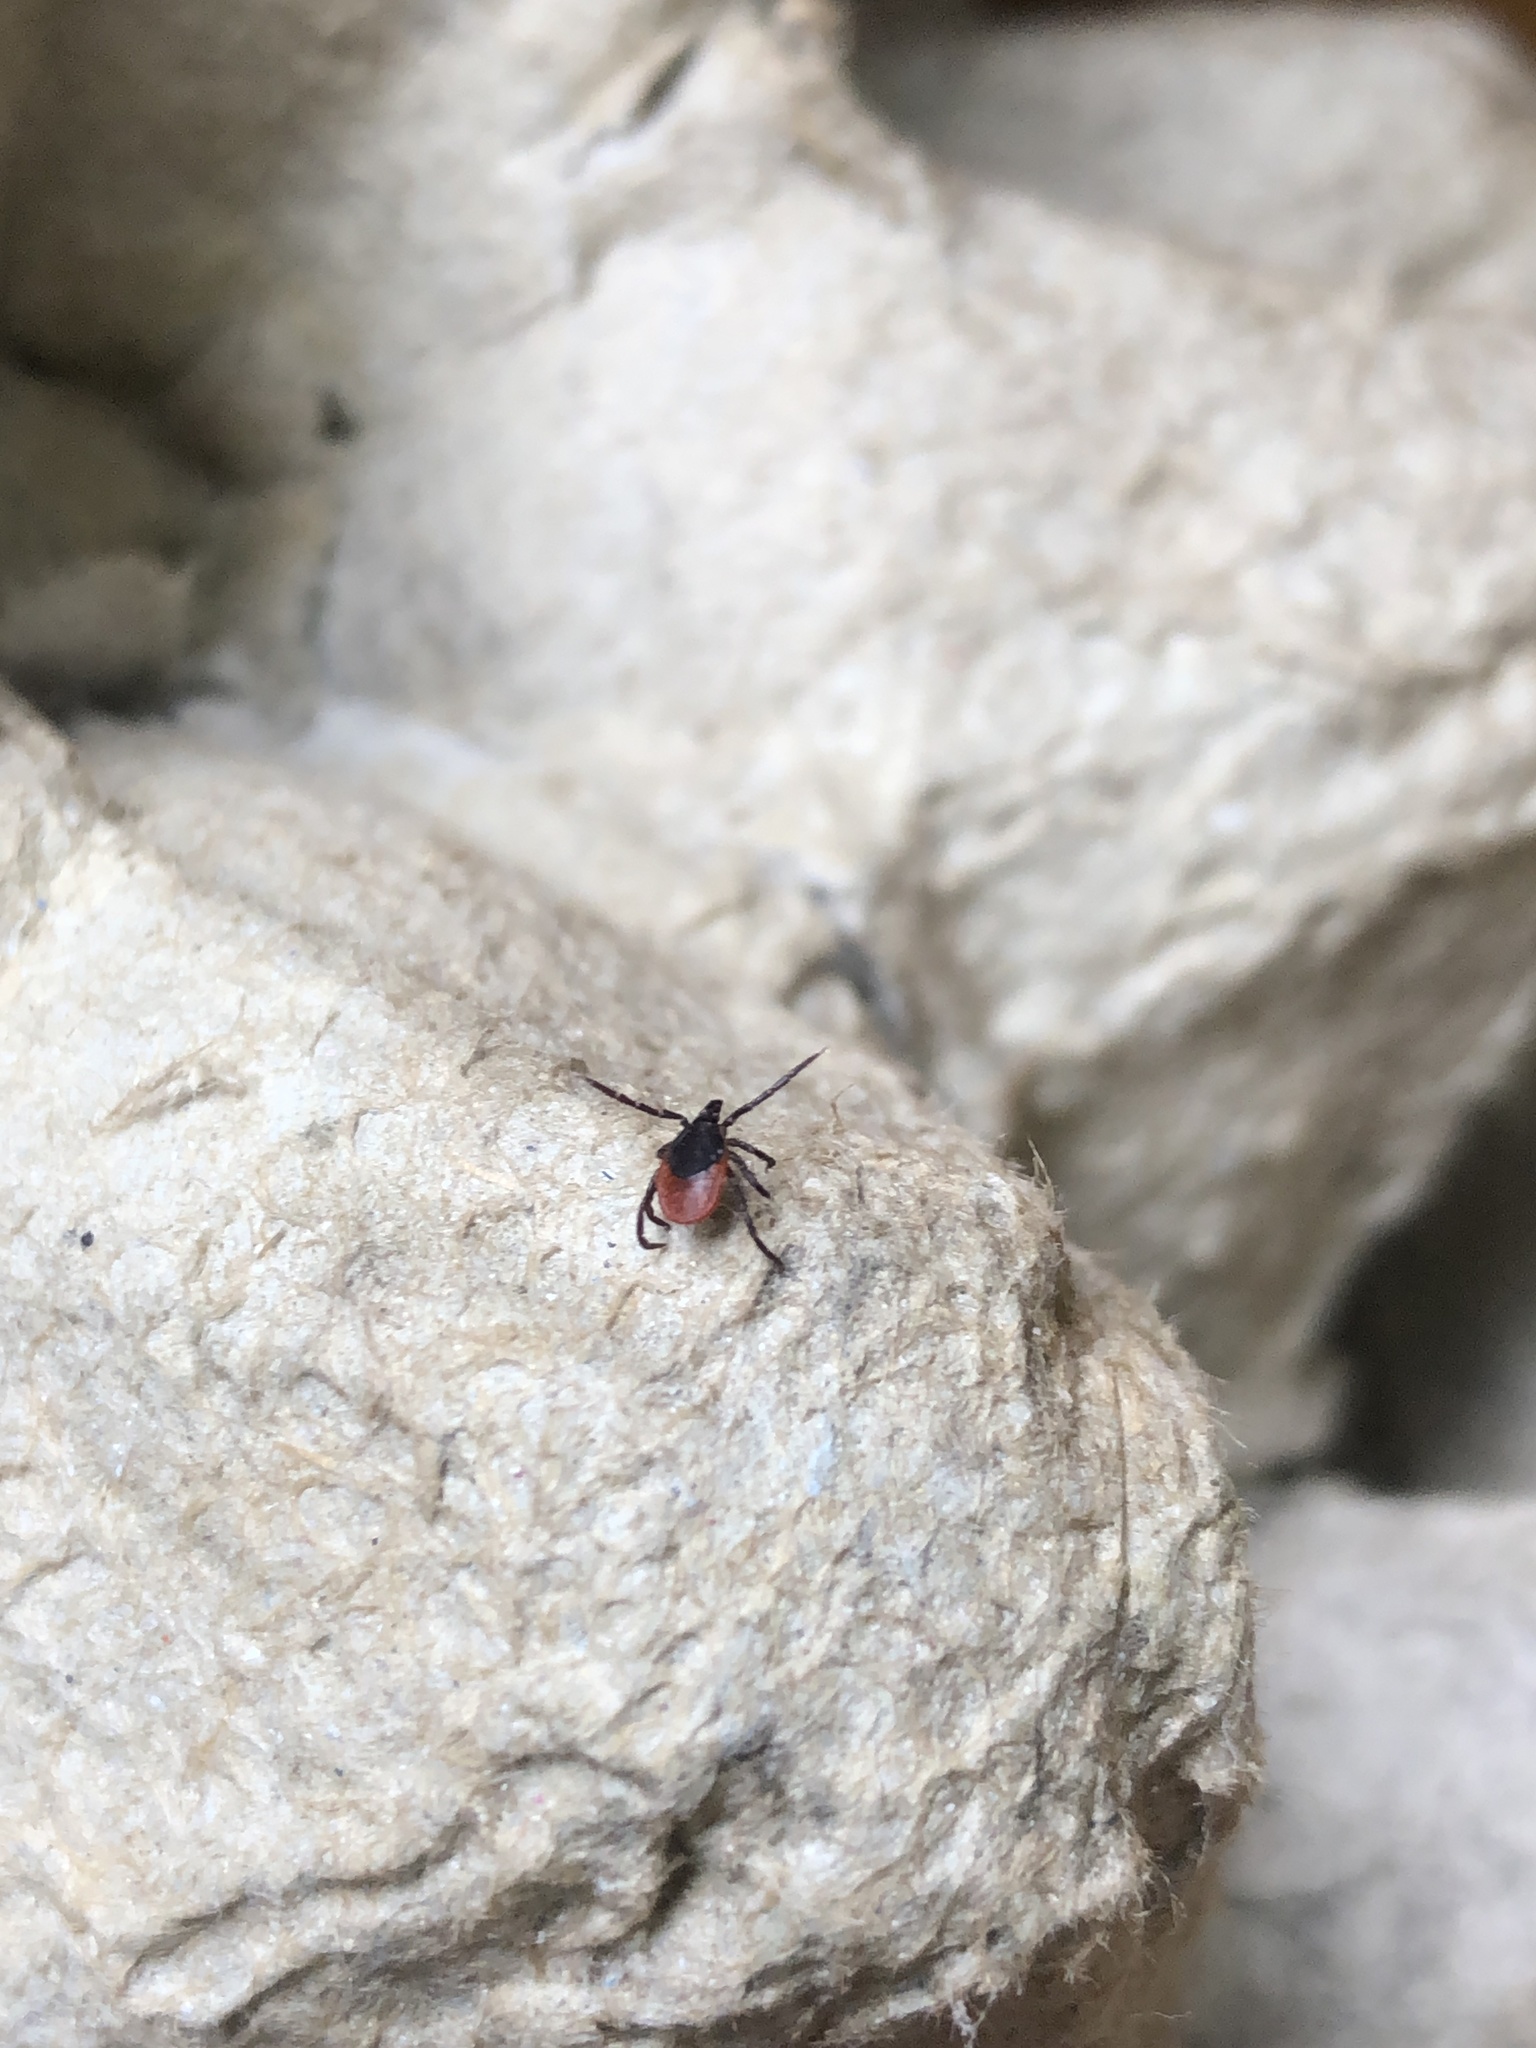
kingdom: Animalia
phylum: Arthropoda
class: Arachnida
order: Ixodida
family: Ixodidae
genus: Ixodes
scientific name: Ixodes ricinus
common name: Castor bean tick
